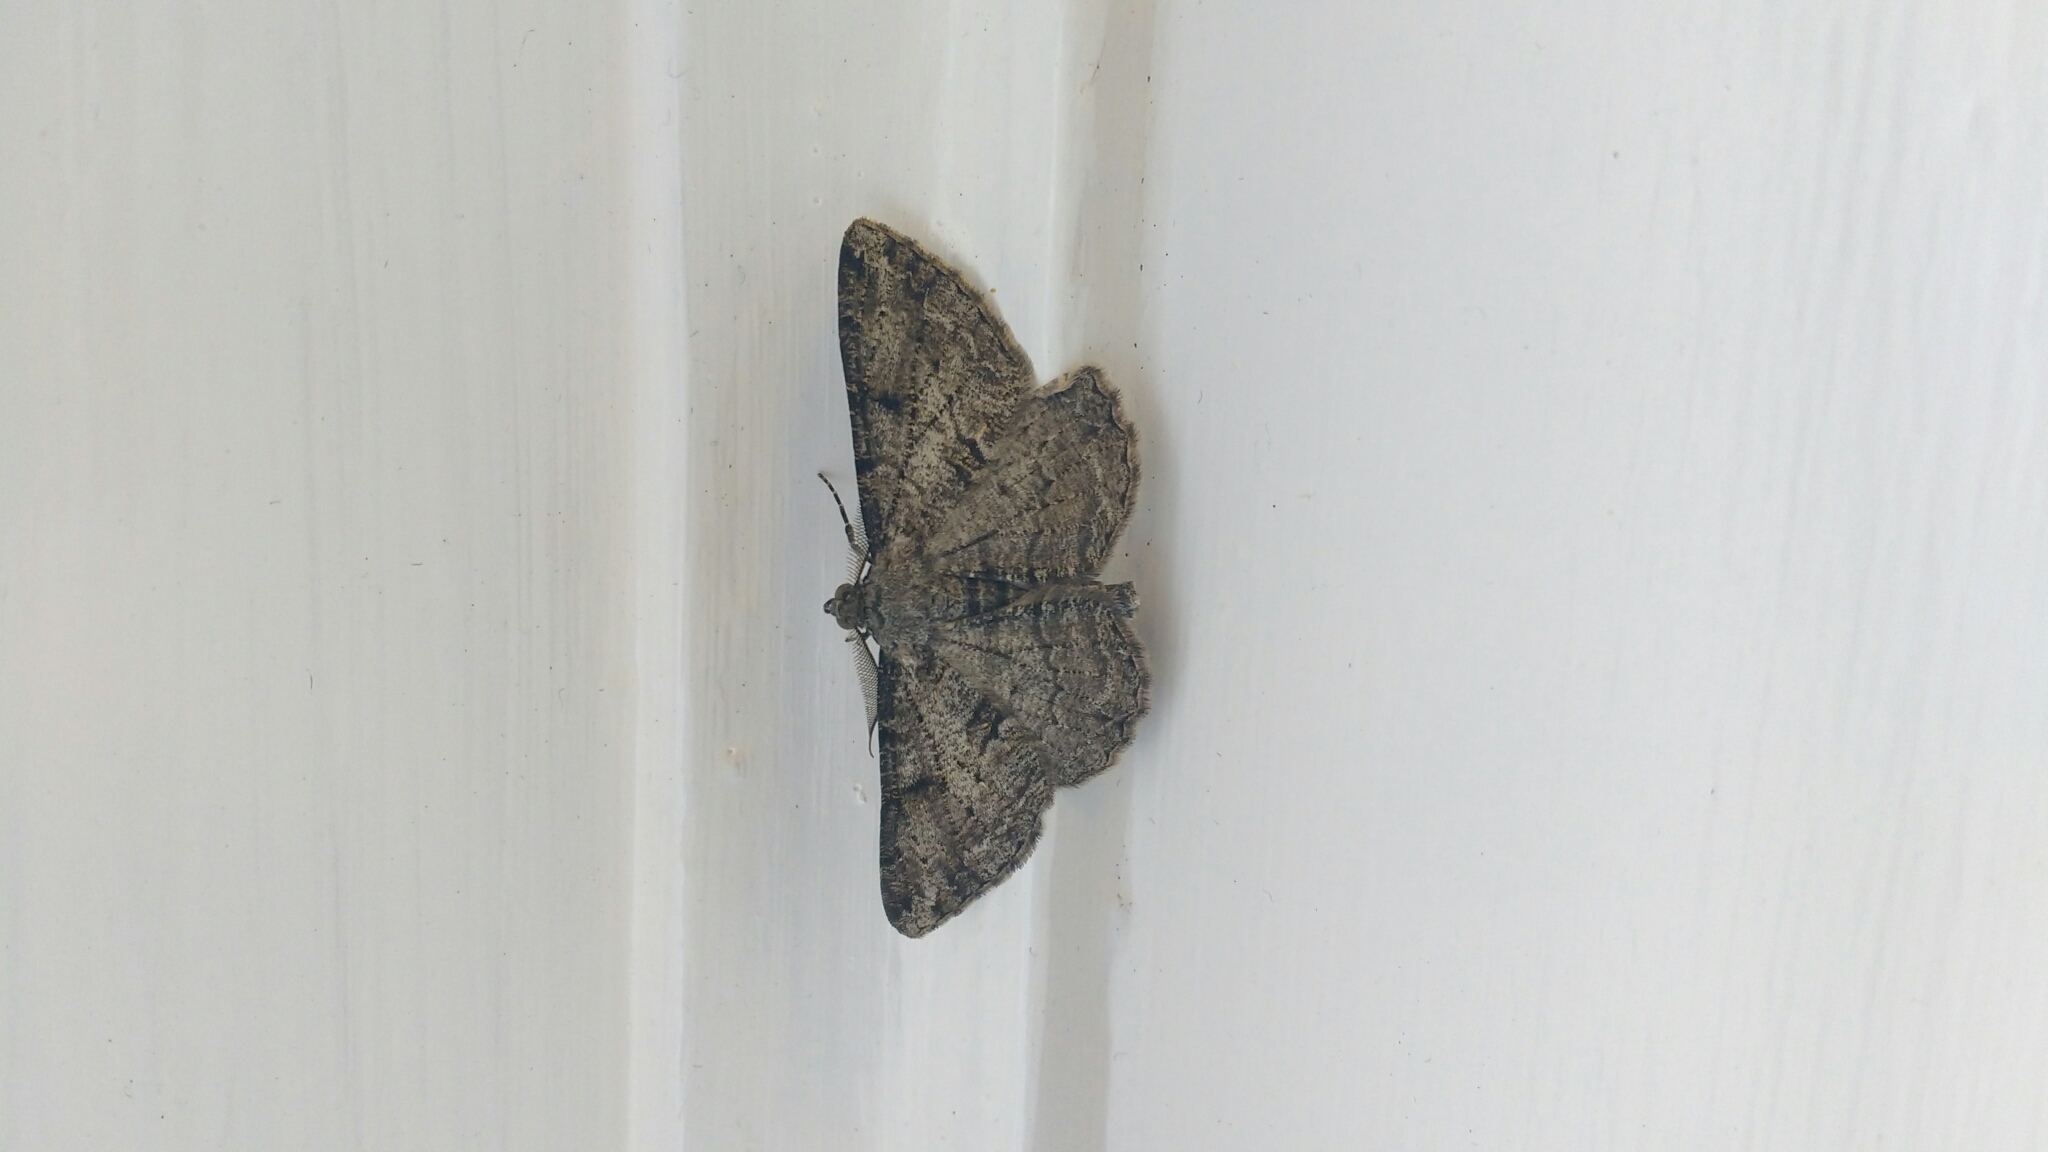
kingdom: Animalia
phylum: Arthropoda
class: Insecta
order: Lepidoptera
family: Geometridae
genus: Peribatodes
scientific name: Peribatodes rhomboidaria
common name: Willow beauty
